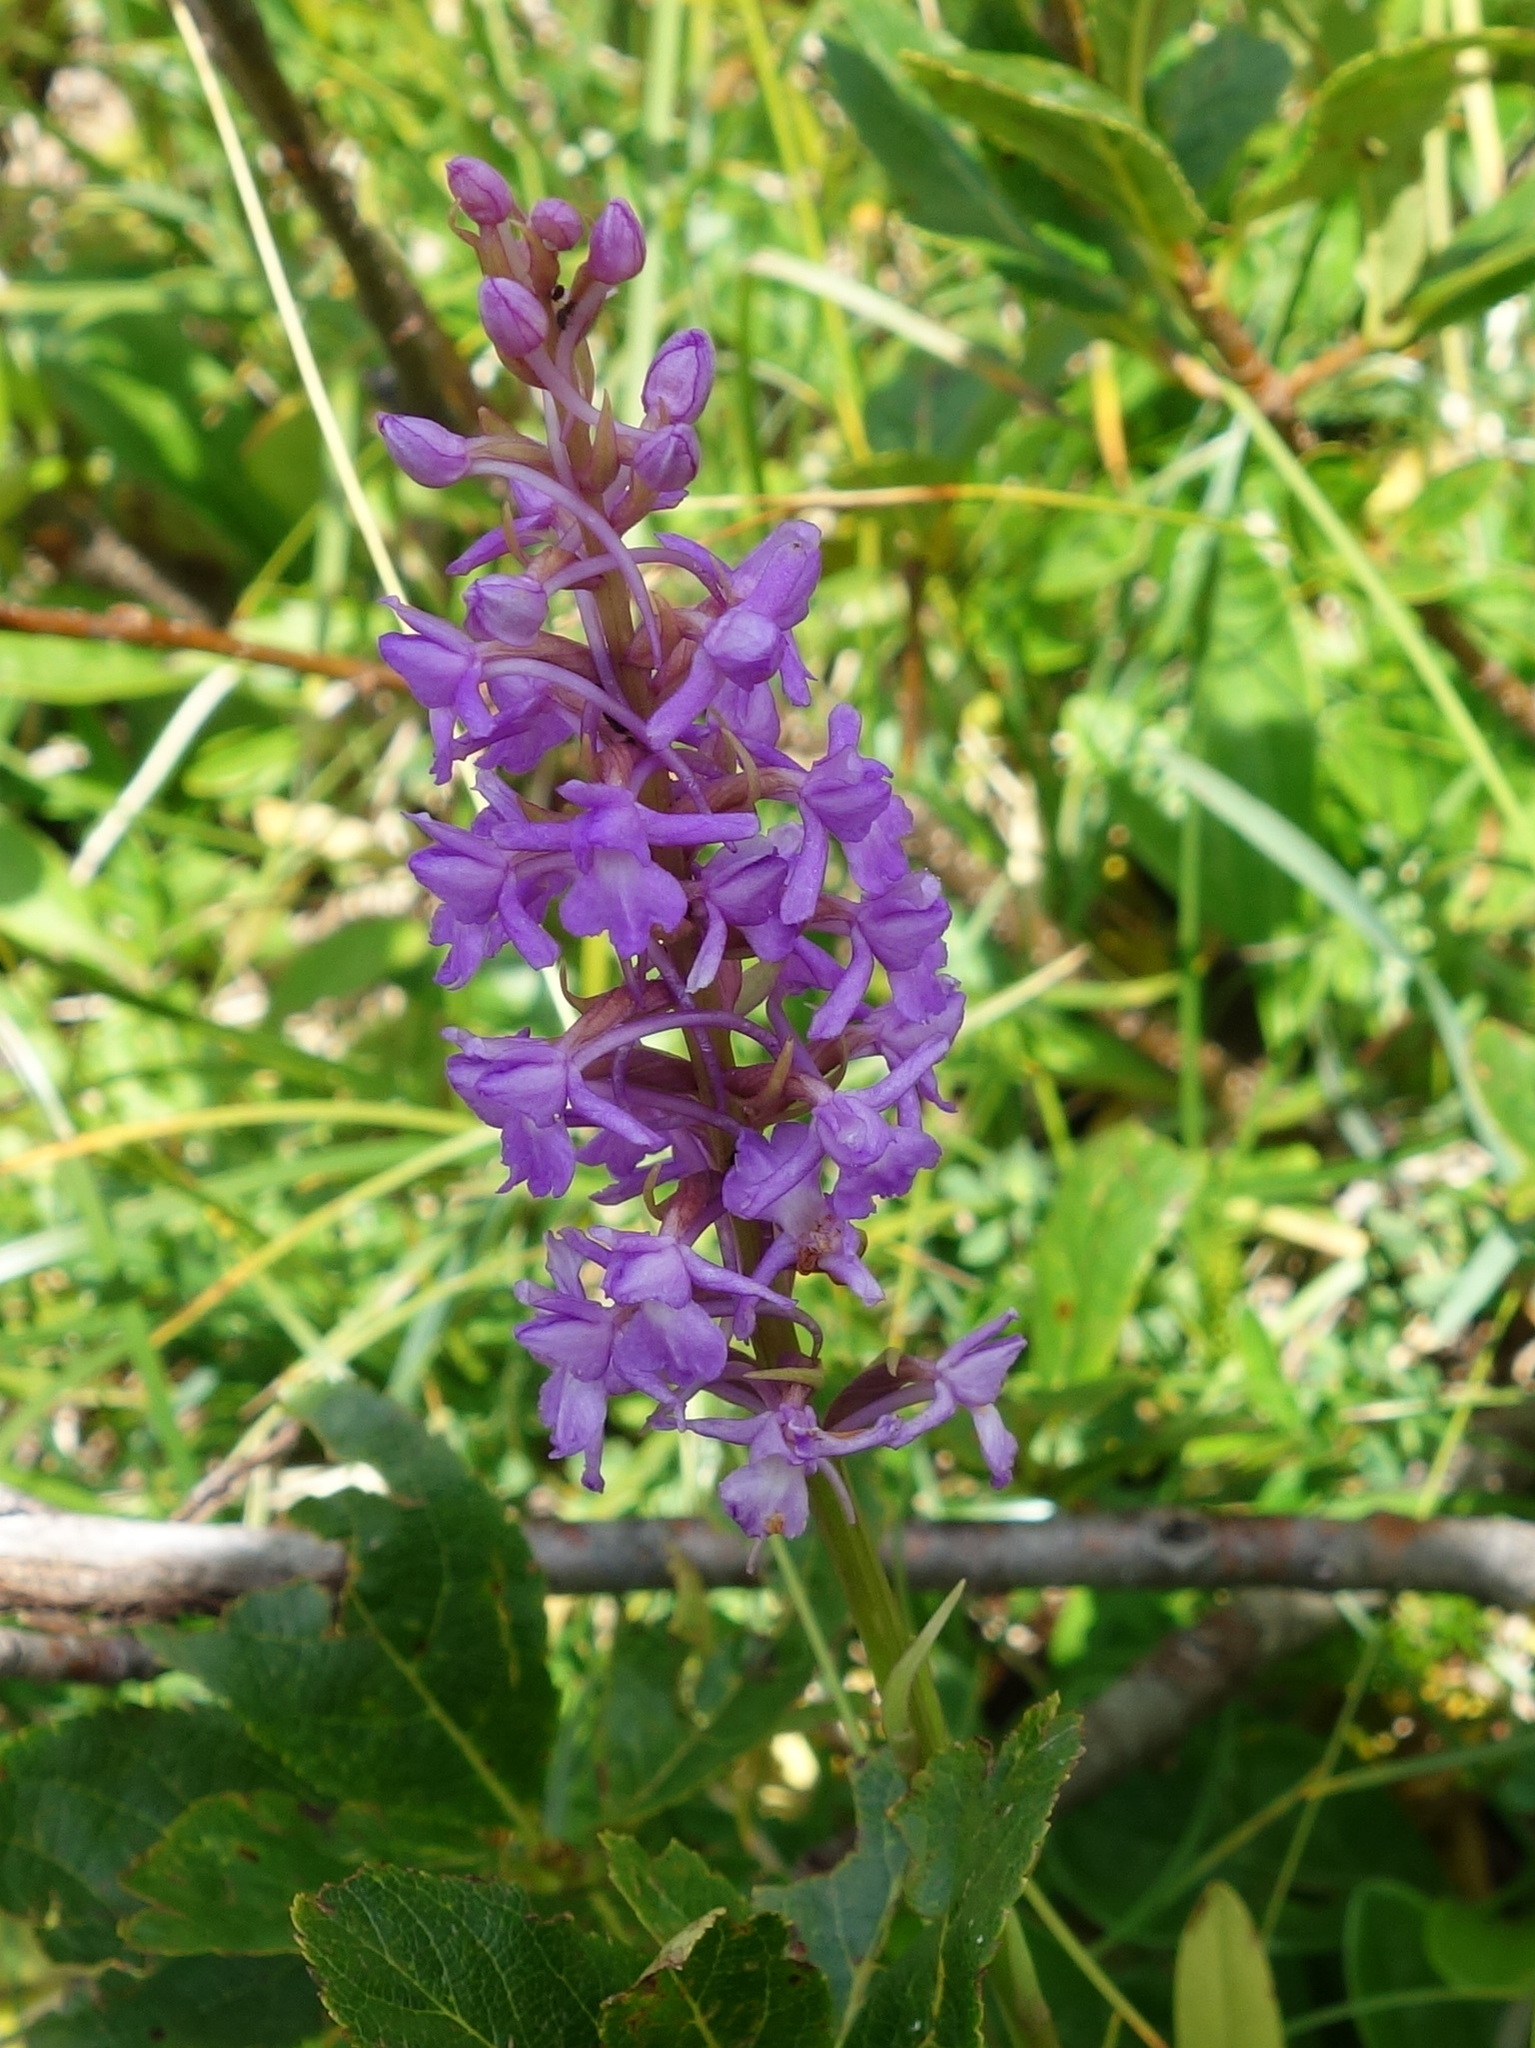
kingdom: Plantae
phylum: Tracheophyta
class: Liliopsida
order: Asparagales
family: Orchidaceae
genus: Gymnadenia
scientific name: Gymnadenia conopsea
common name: Fragrant orchid
